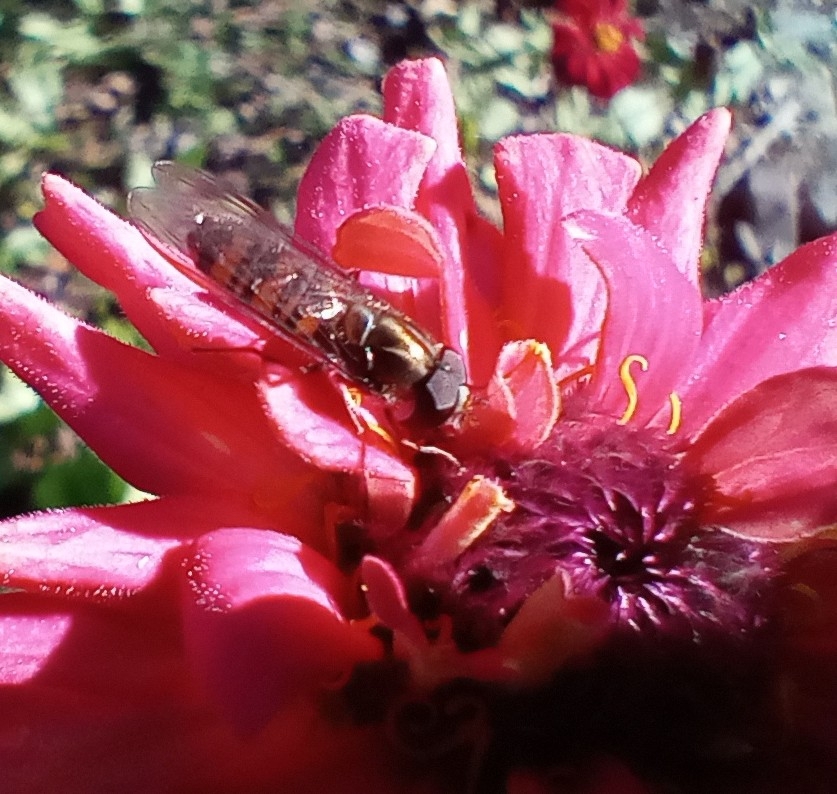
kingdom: Animalia
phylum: Arthropoda
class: Insecta
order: Diptera
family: Syrphidae
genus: Episyrphus
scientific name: Episyrphus balteatus
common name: Marmalade hoverfly
